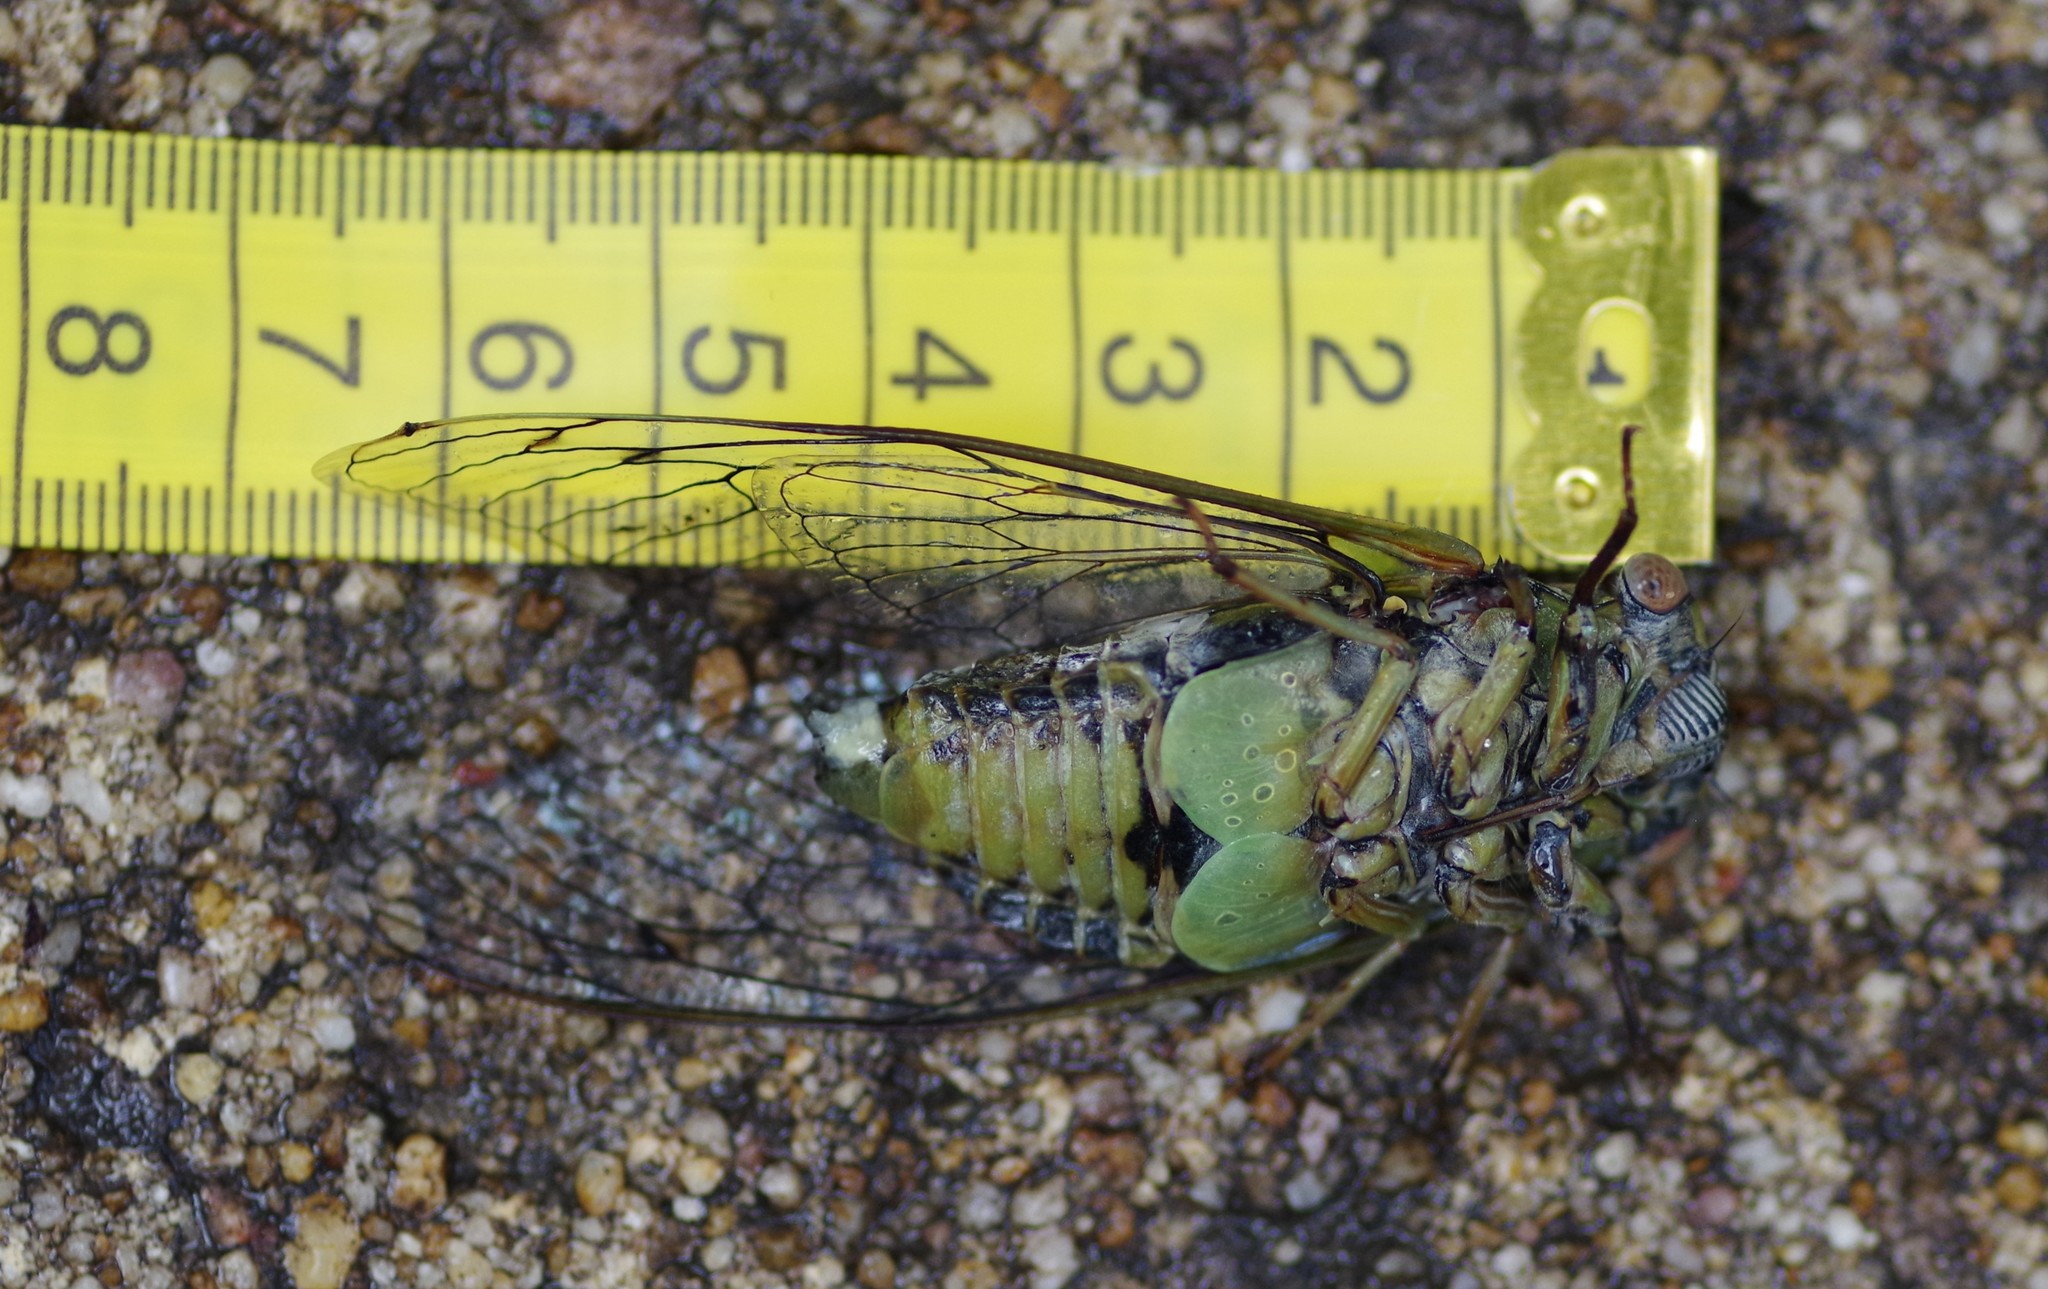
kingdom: Animalia
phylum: Arthropoda
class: Insecta
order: Hemiptera
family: Cicadidae
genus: Diceroprocta
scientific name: Diceroprocta grossa
